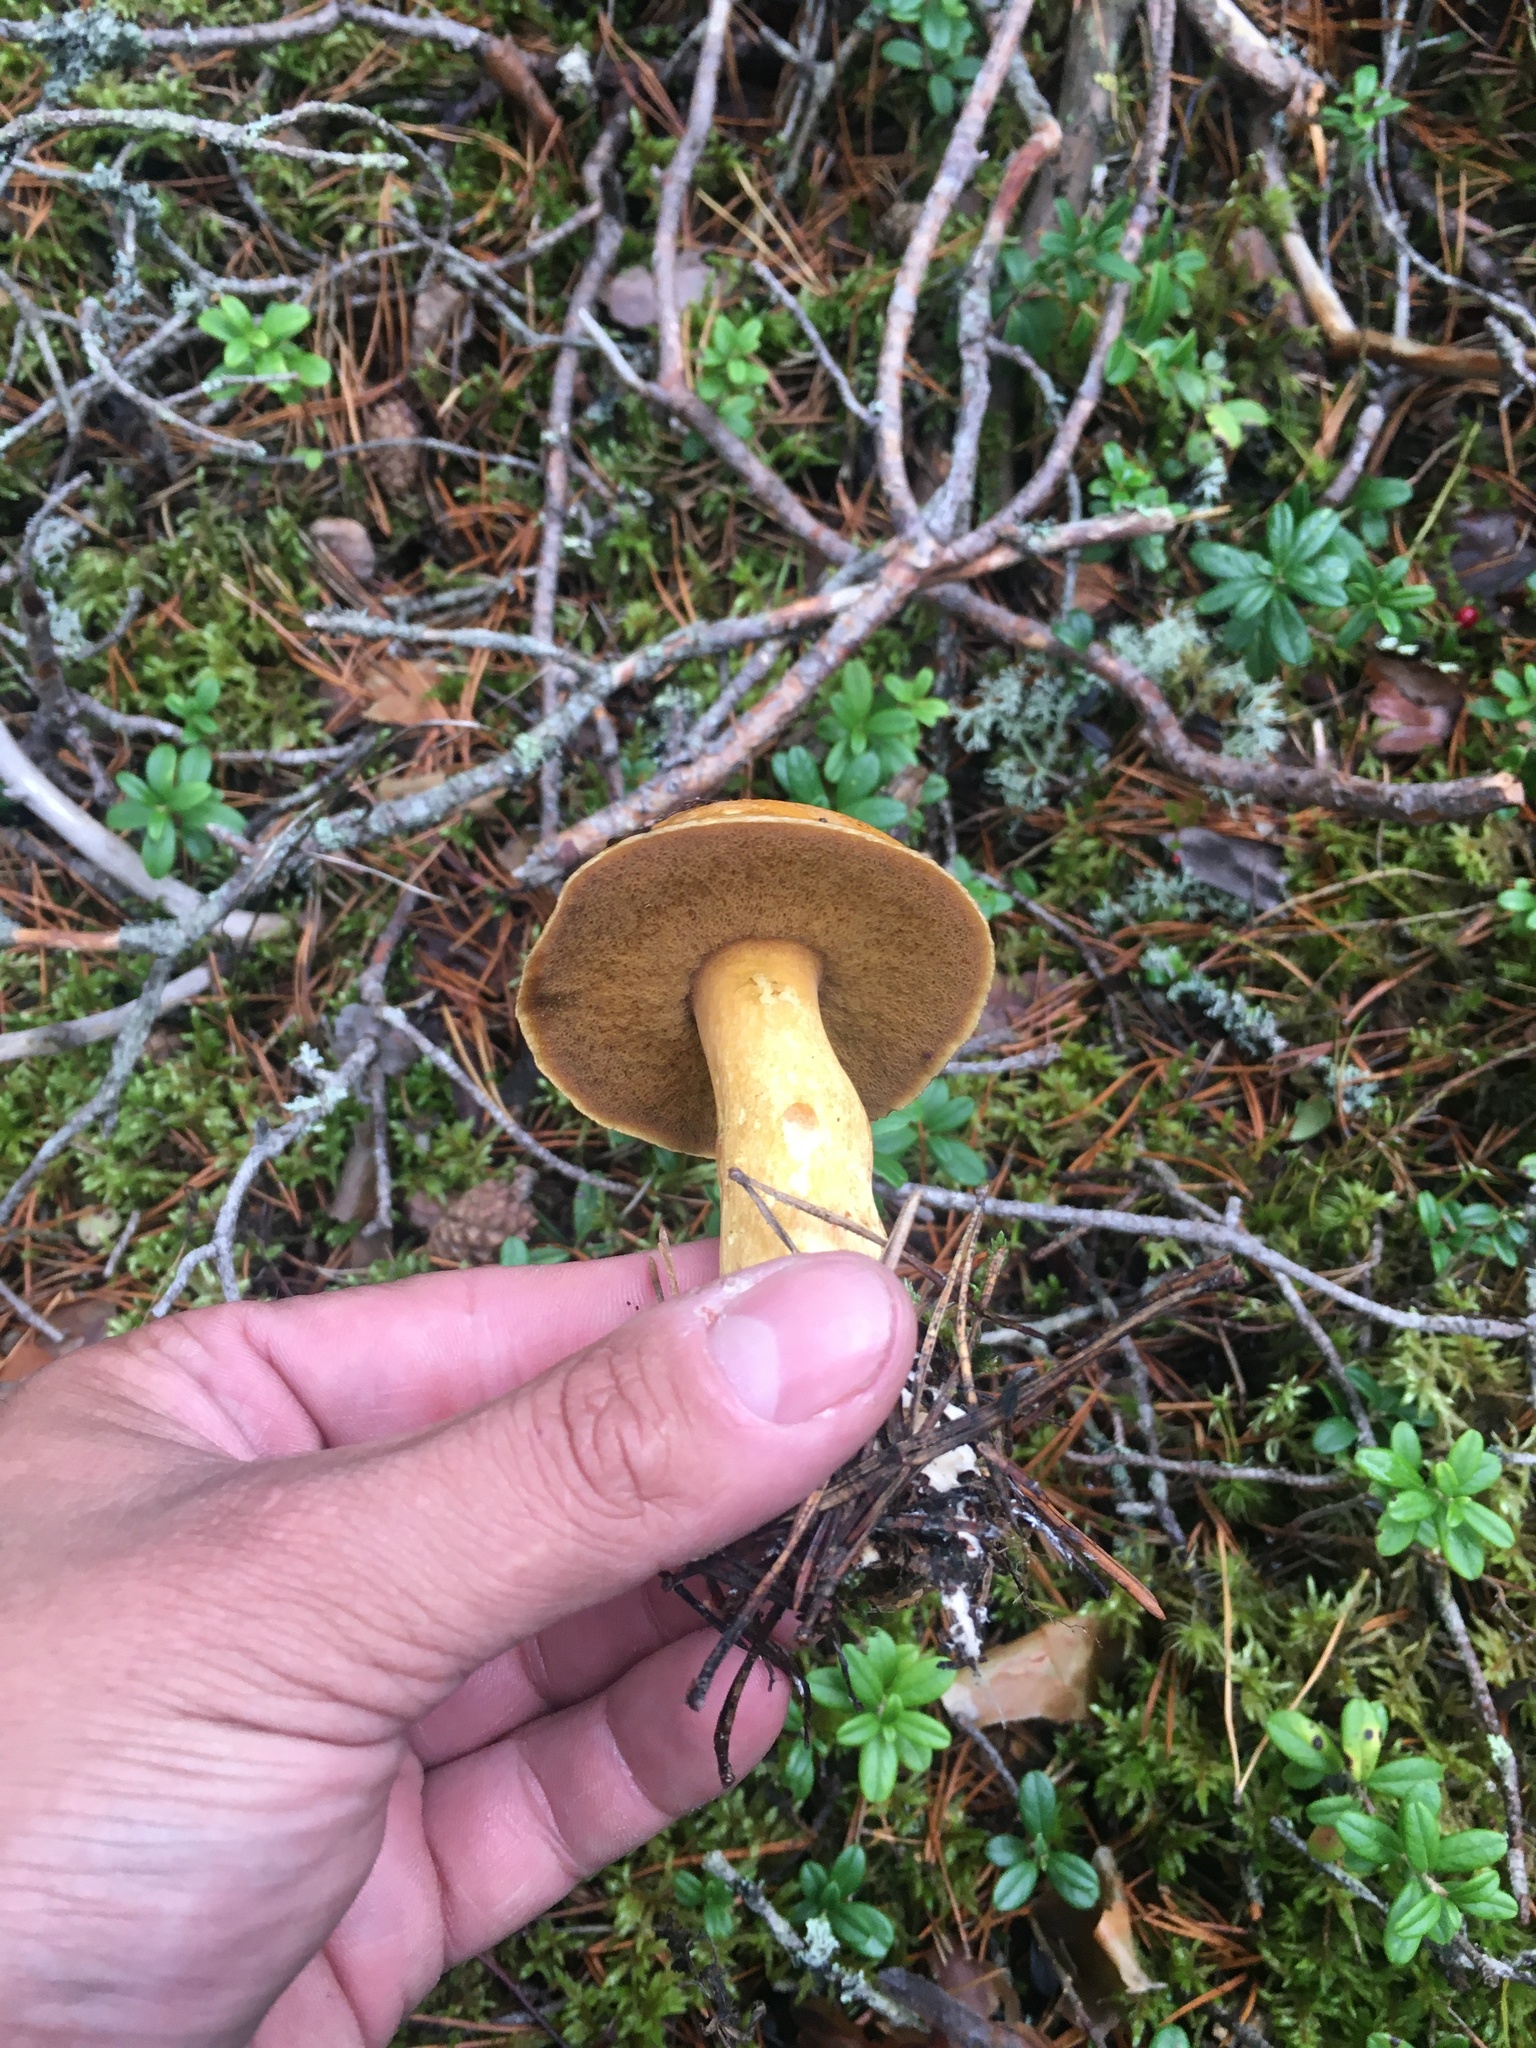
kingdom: Fungi
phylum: Basidiomycota
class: Agaricomycetes
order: Boletales
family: Suillaceae
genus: Suillus
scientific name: Suillus variegatus
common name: Velvet bolete
